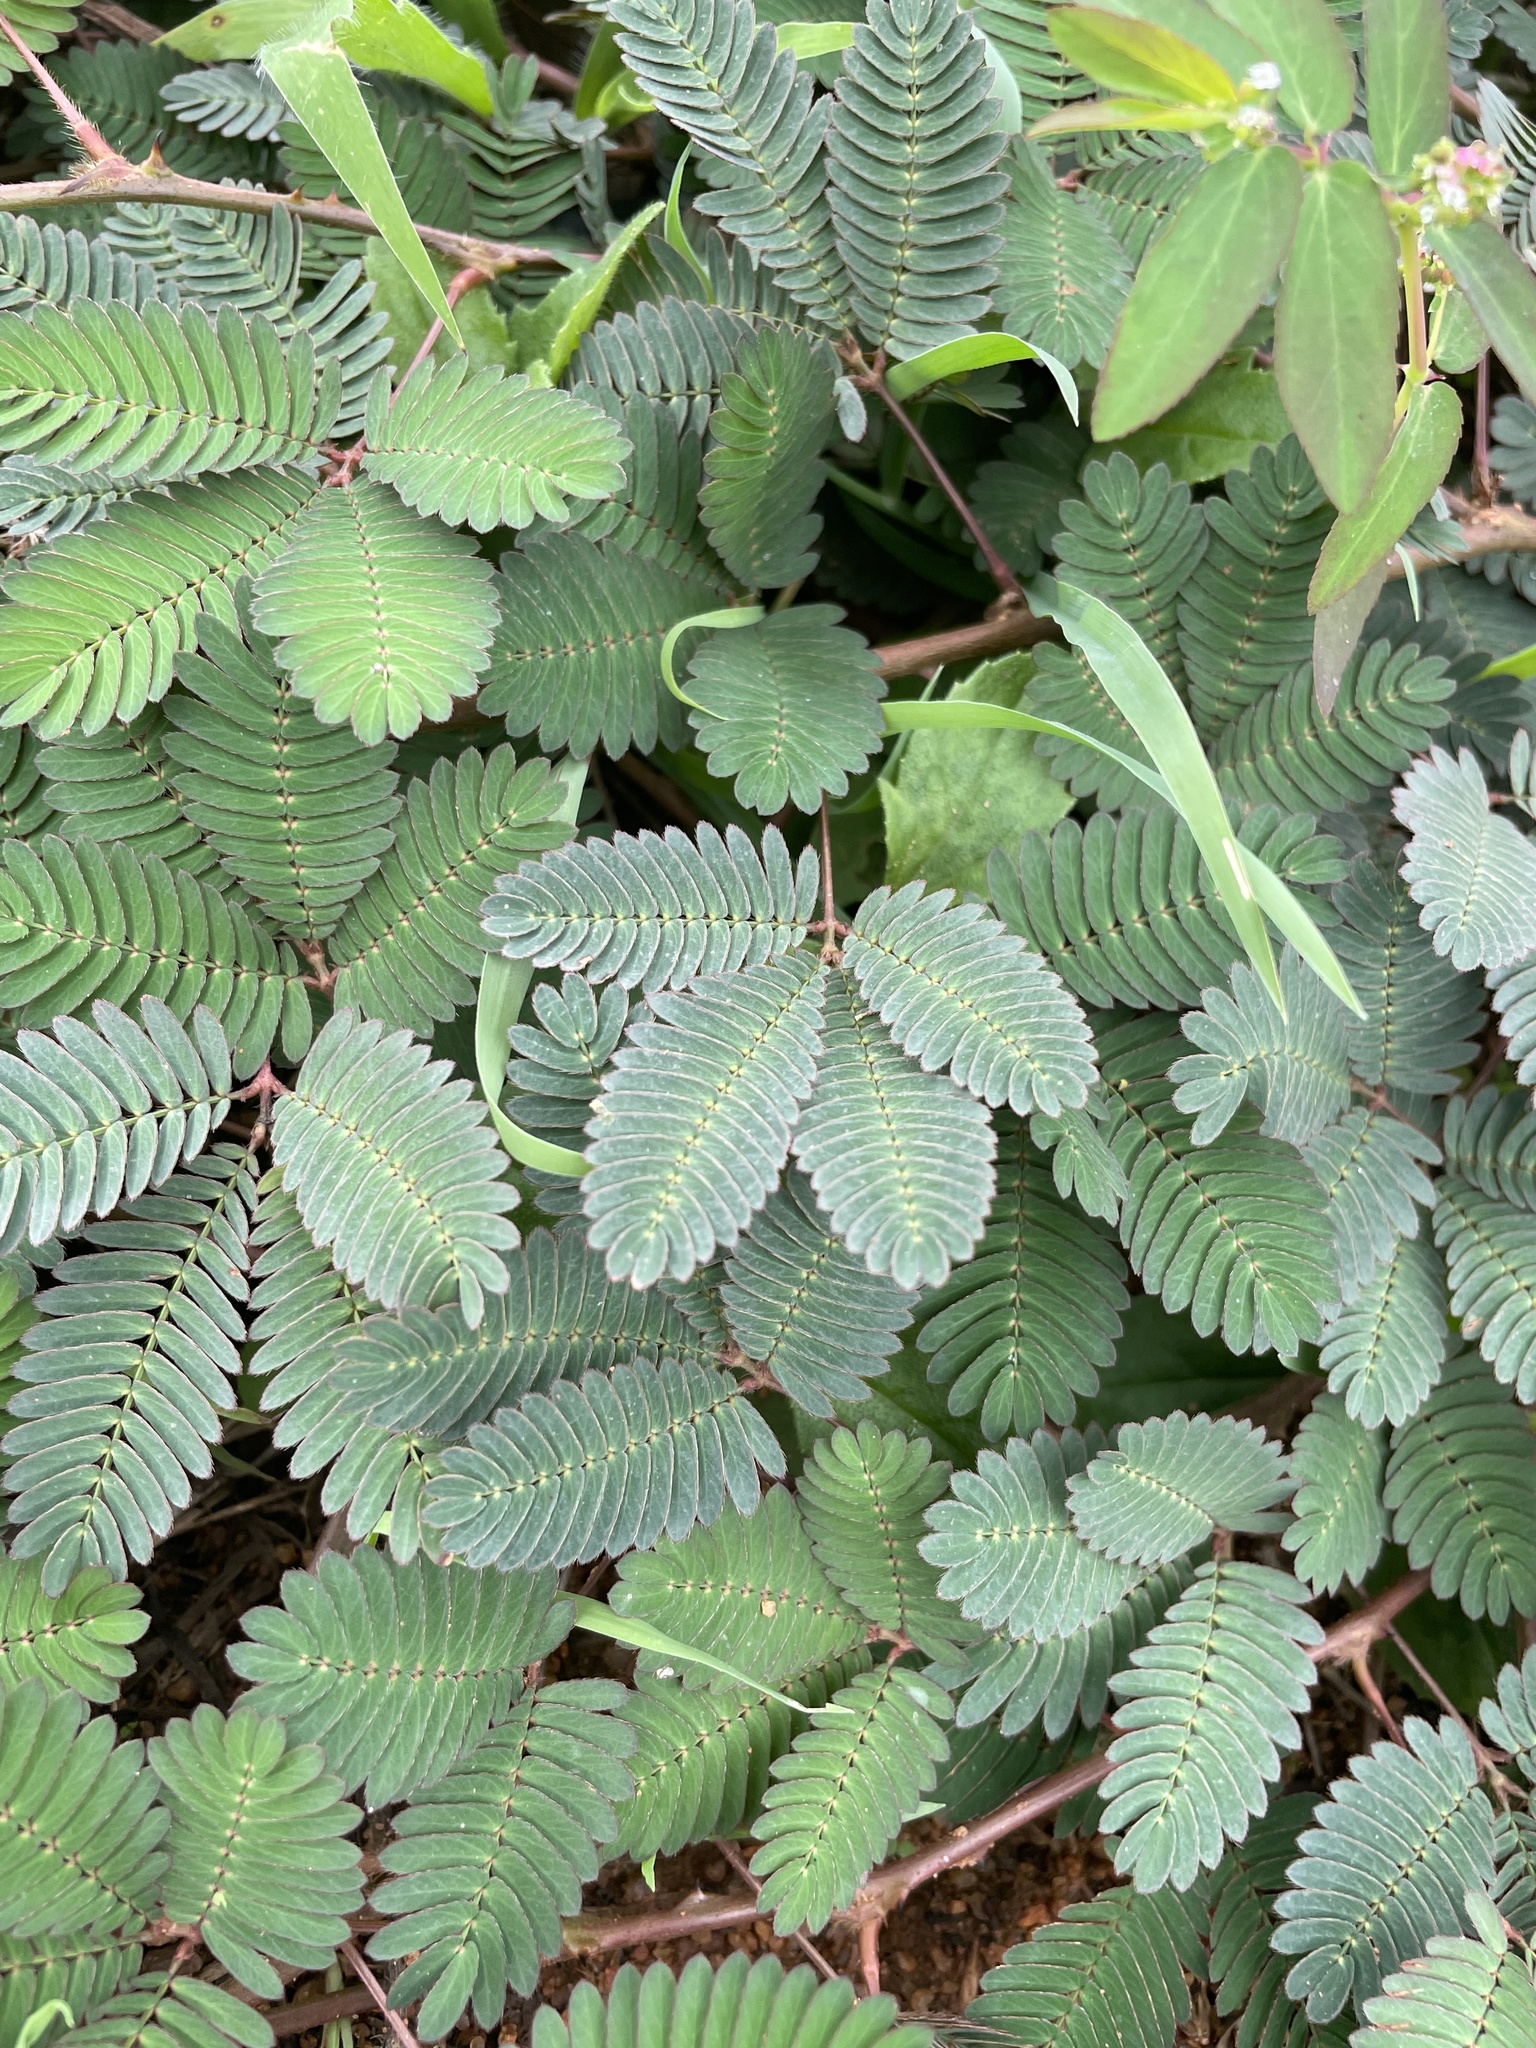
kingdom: Plantae
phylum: Tracheophyta
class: Magnoliopsida
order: Fabales
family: Fabaceae
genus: Mimosa
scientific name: Mimosa pudica
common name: Sensitive plant
